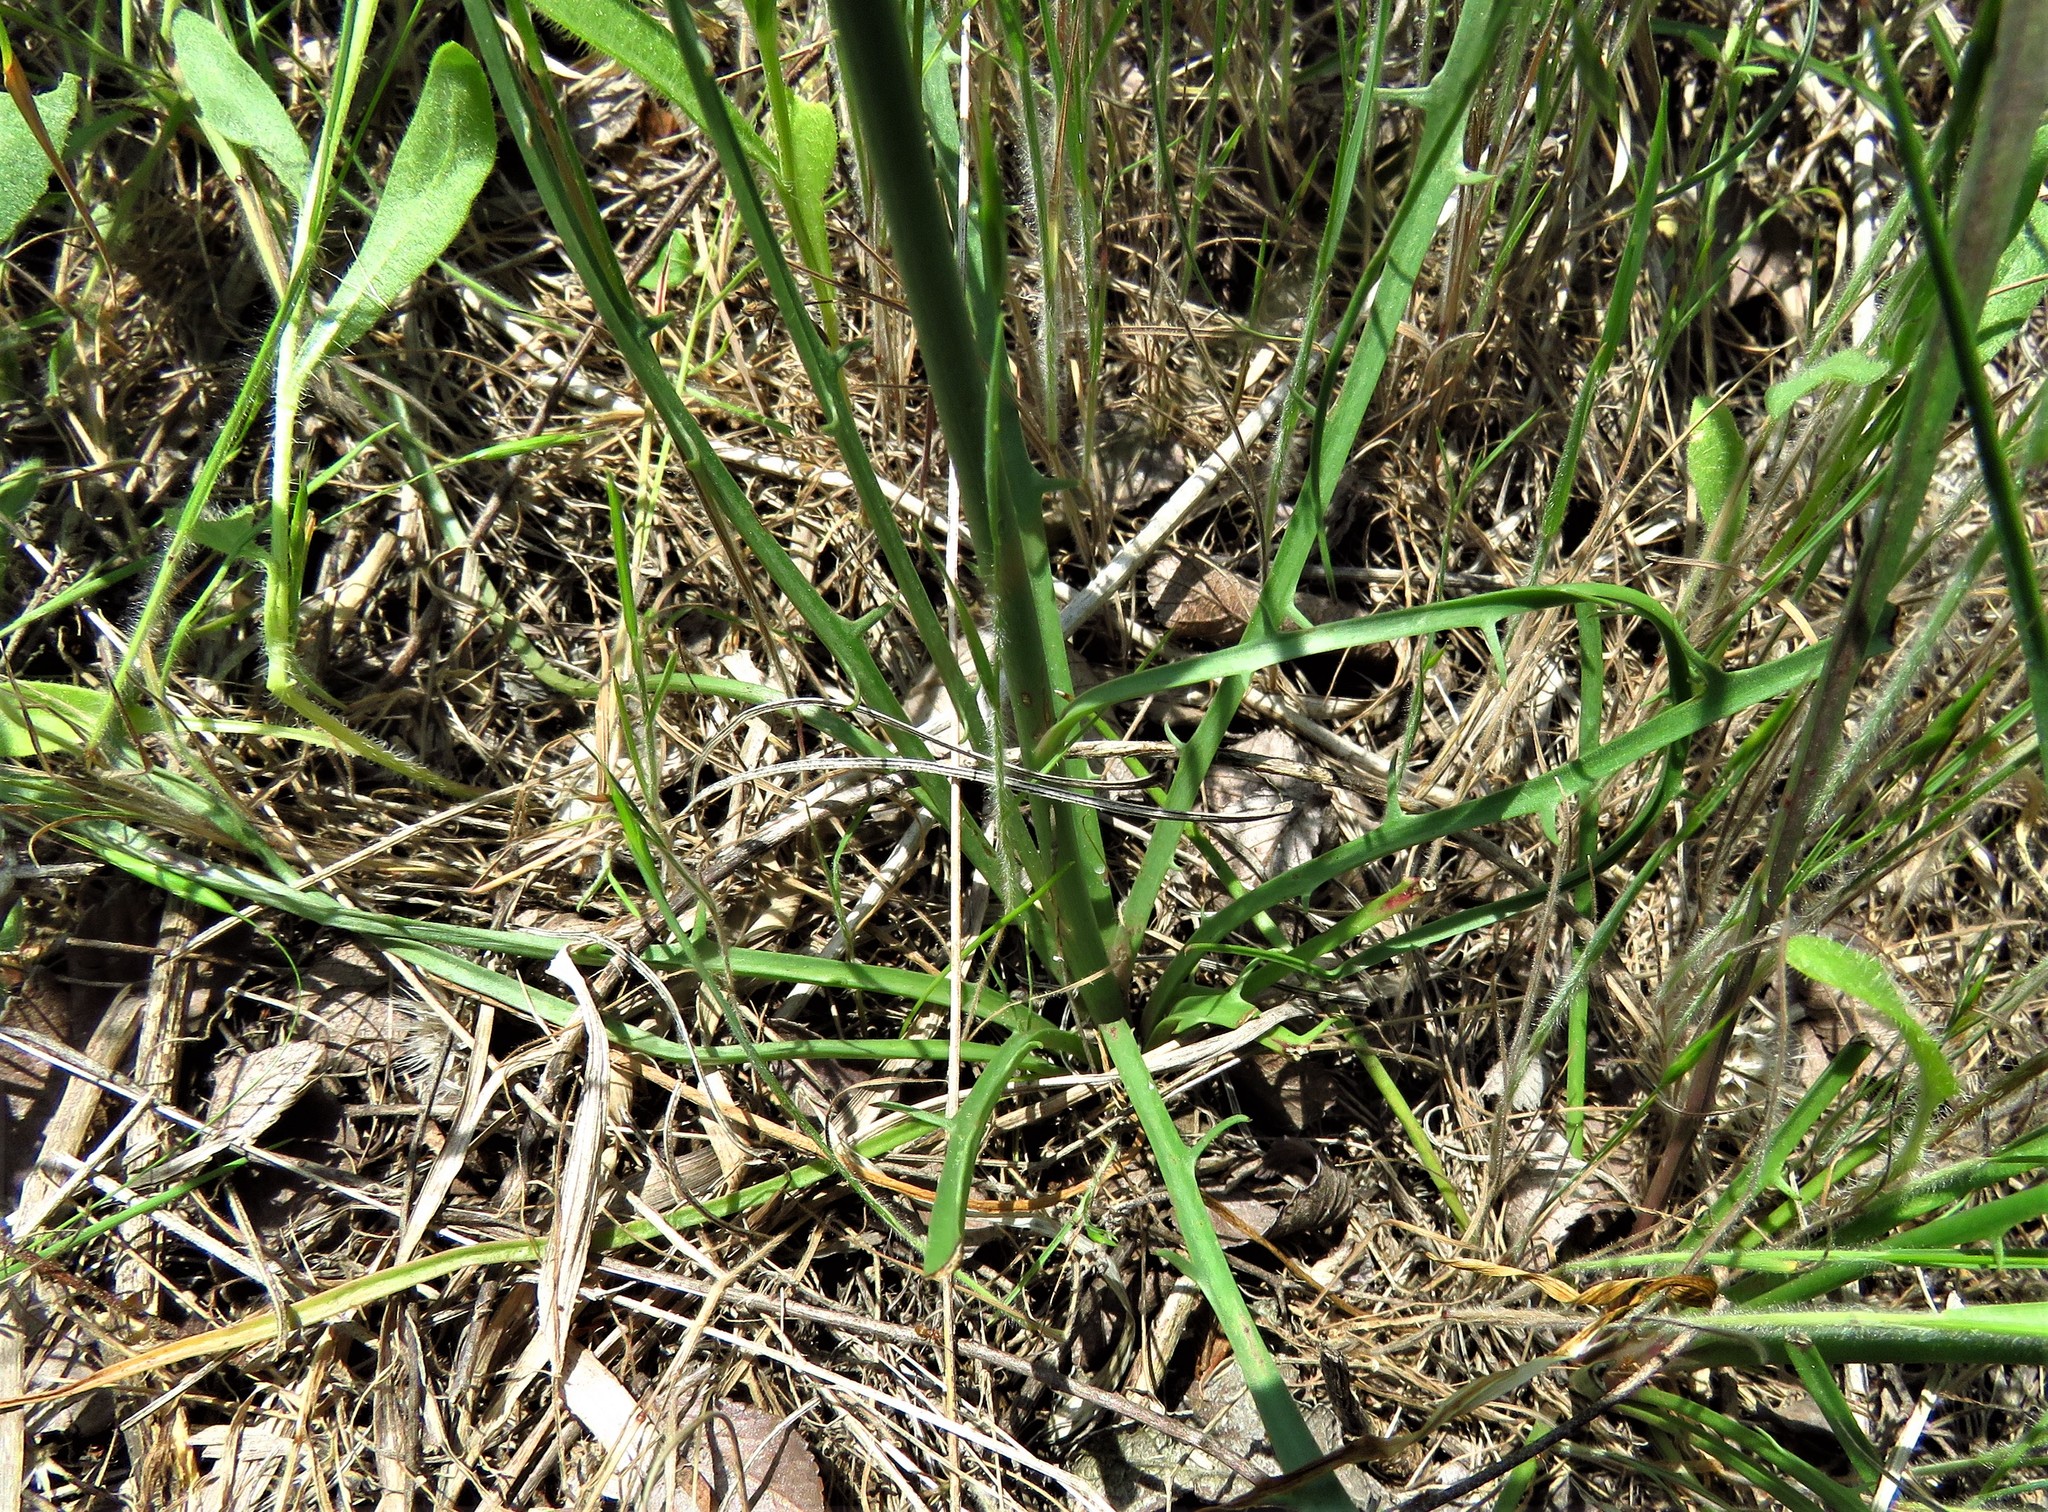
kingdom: Plantae
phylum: Tracheophyta
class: Magnoliopsida
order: Asterales
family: Asteraceae
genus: Crepis
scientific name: Crepis zacintha
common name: Striped hawksbeard
